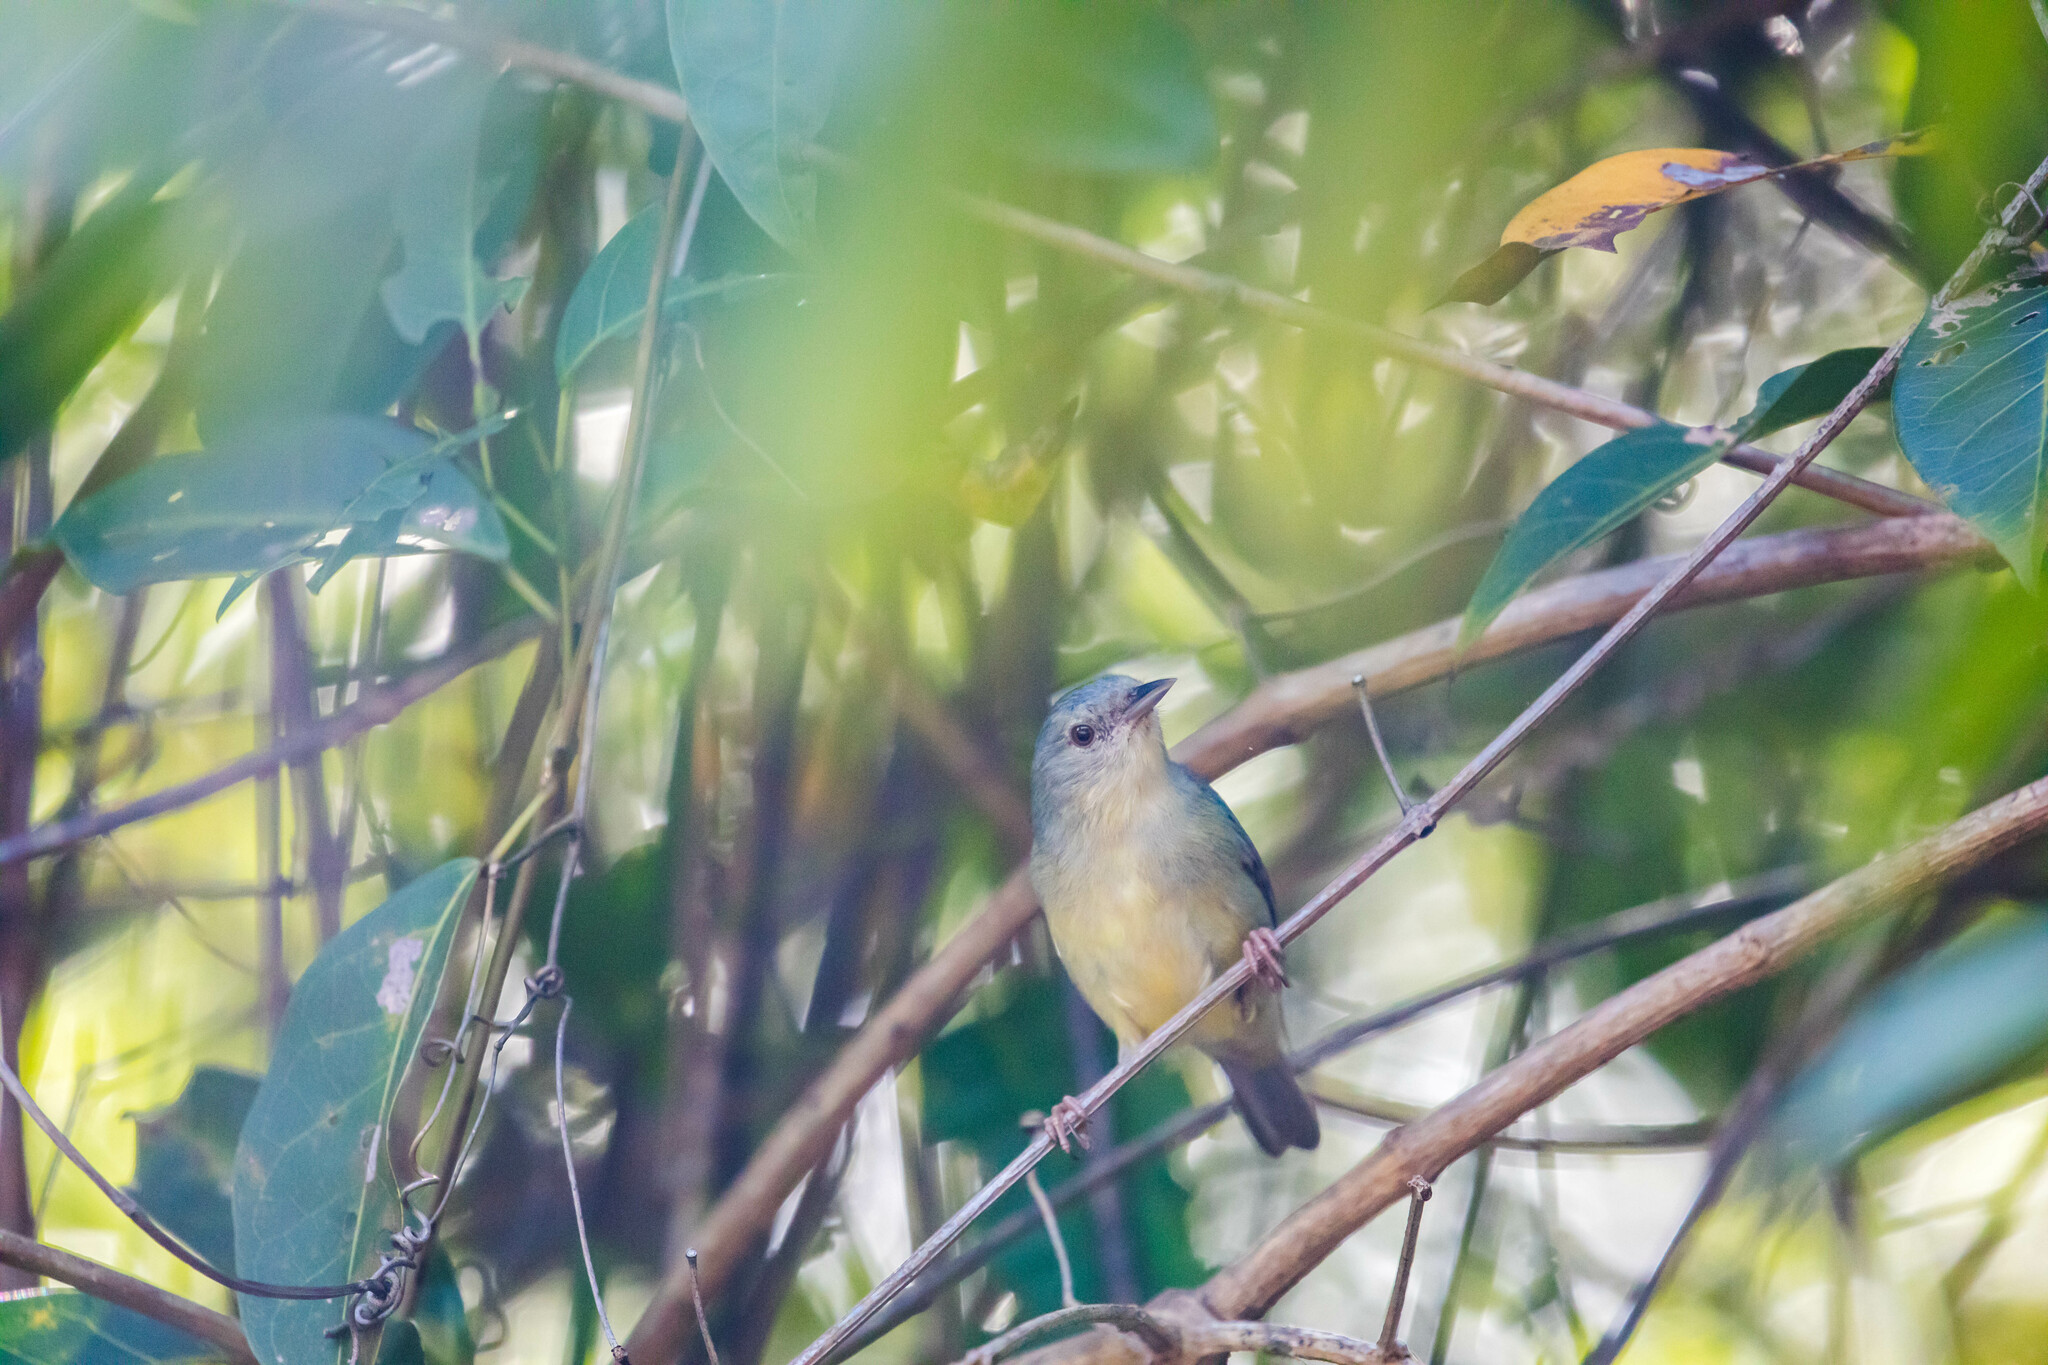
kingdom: Animalia
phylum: Chordata
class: Aves
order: Passeriformes
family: Thraupidae
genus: Conirostrum
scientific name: Conirostrum bicolor
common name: Bicolored conebill
